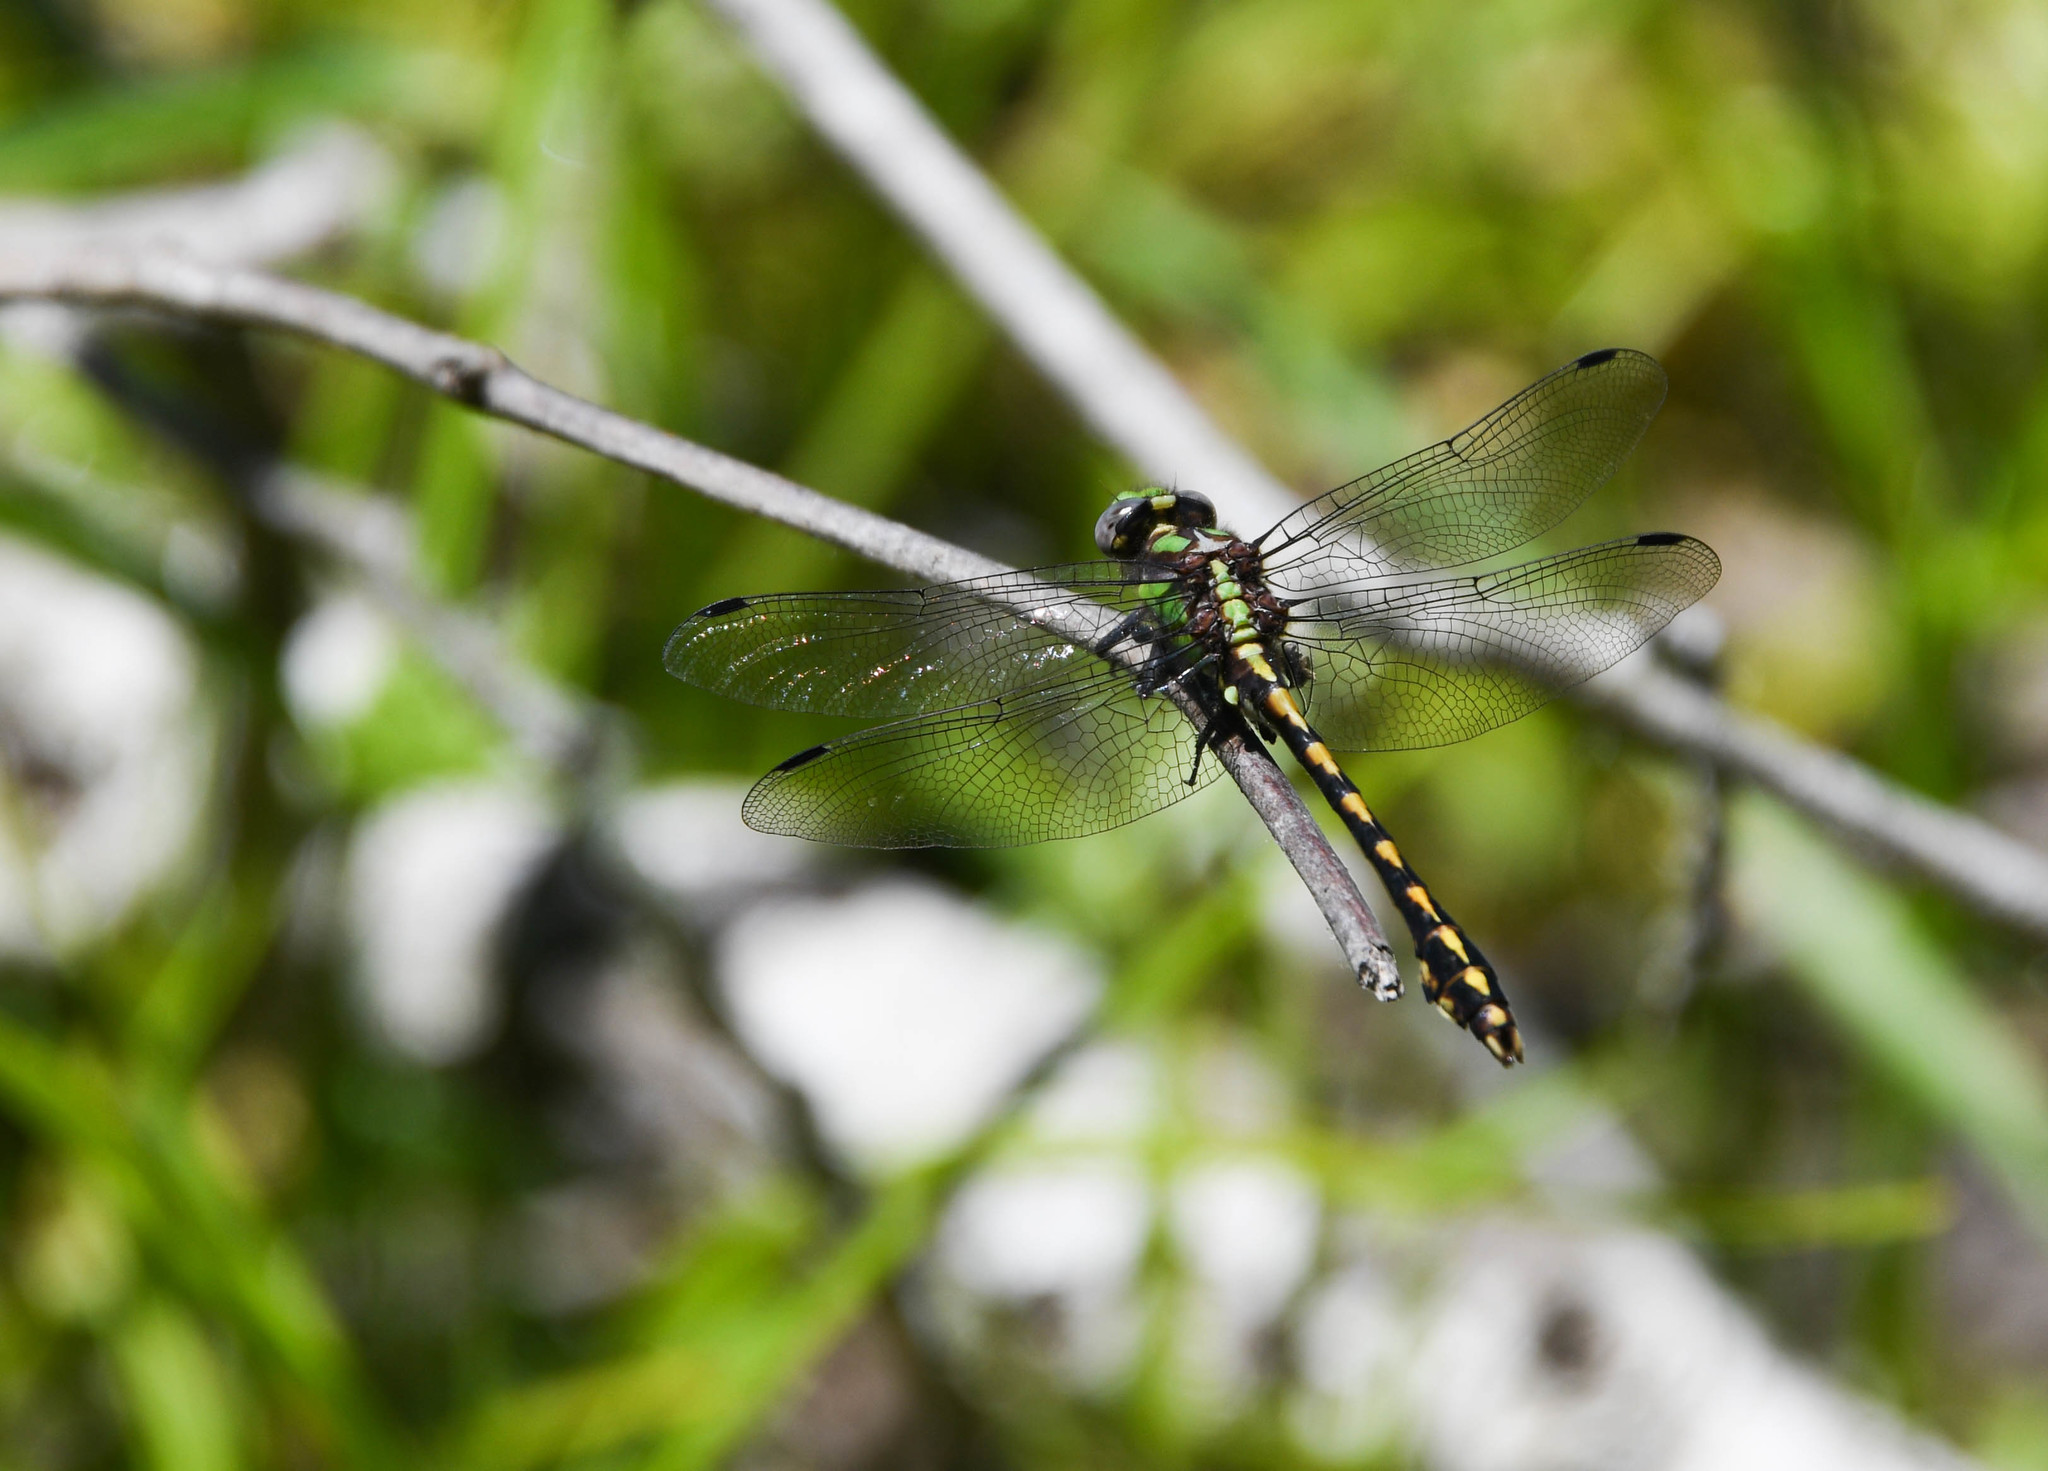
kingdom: Animalia
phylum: Arthropoda
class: Insecta
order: Odonata
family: Gomphidae
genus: Ophiogomphus
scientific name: Ophiogomphus bison
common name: Bison snaketail
